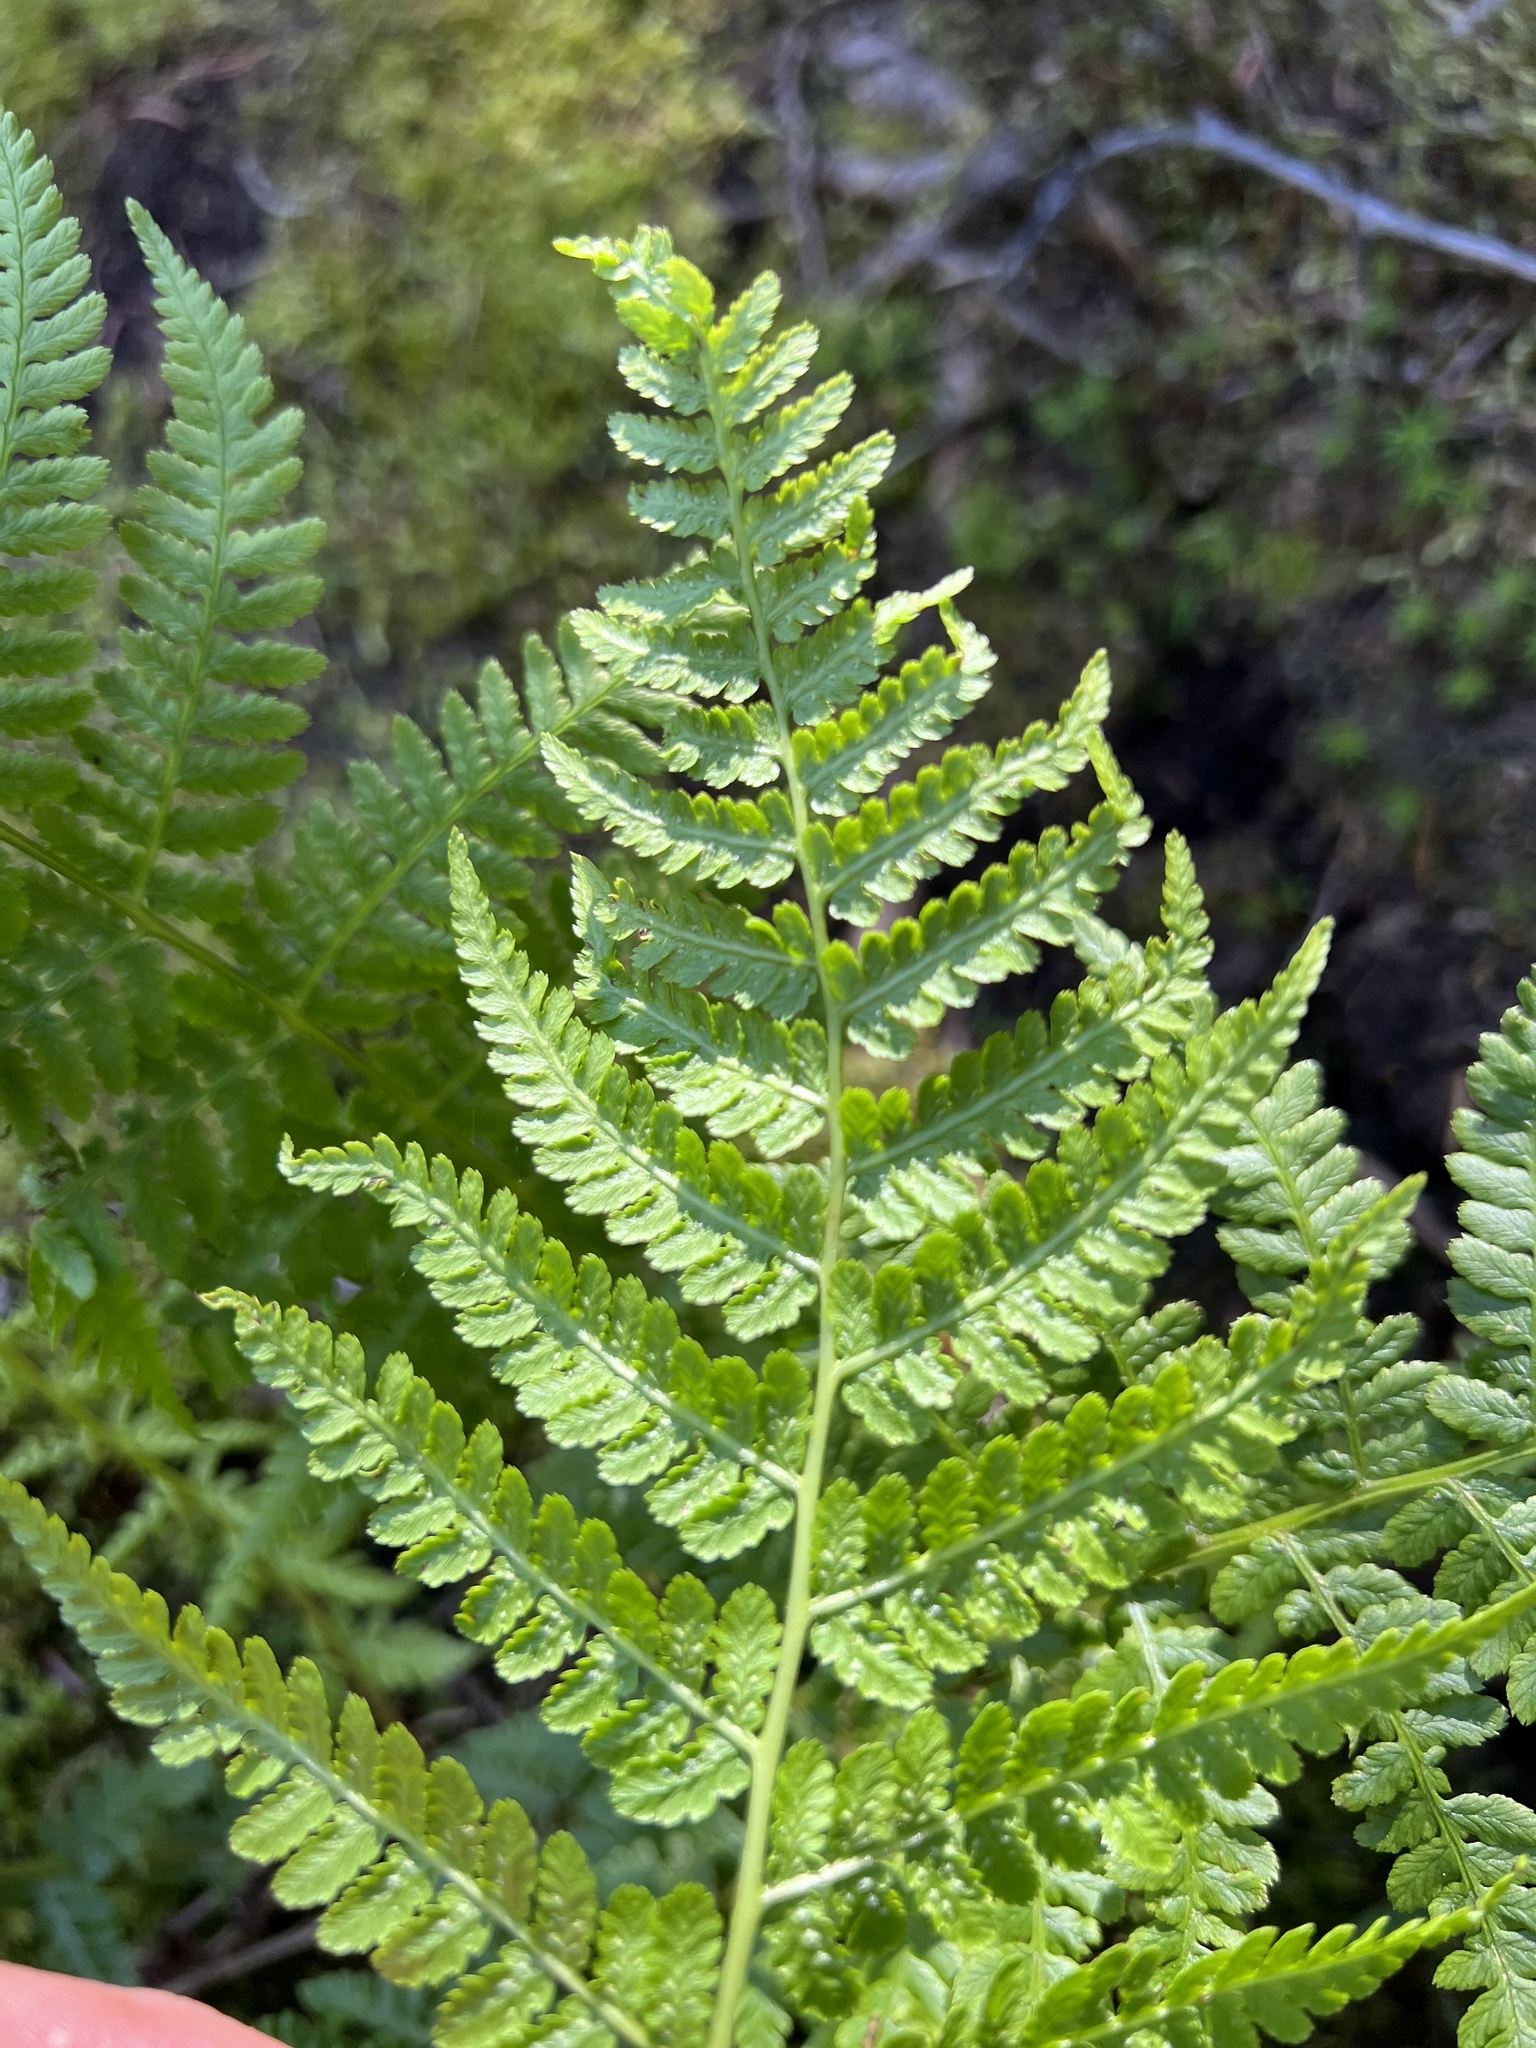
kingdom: Plantae
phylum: Tracheophyta
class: Polypodiopsida
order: Polypodiales
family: Athyriaceae
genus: Athyrium
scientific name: Athyrium filix-femina
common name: Lady fern
